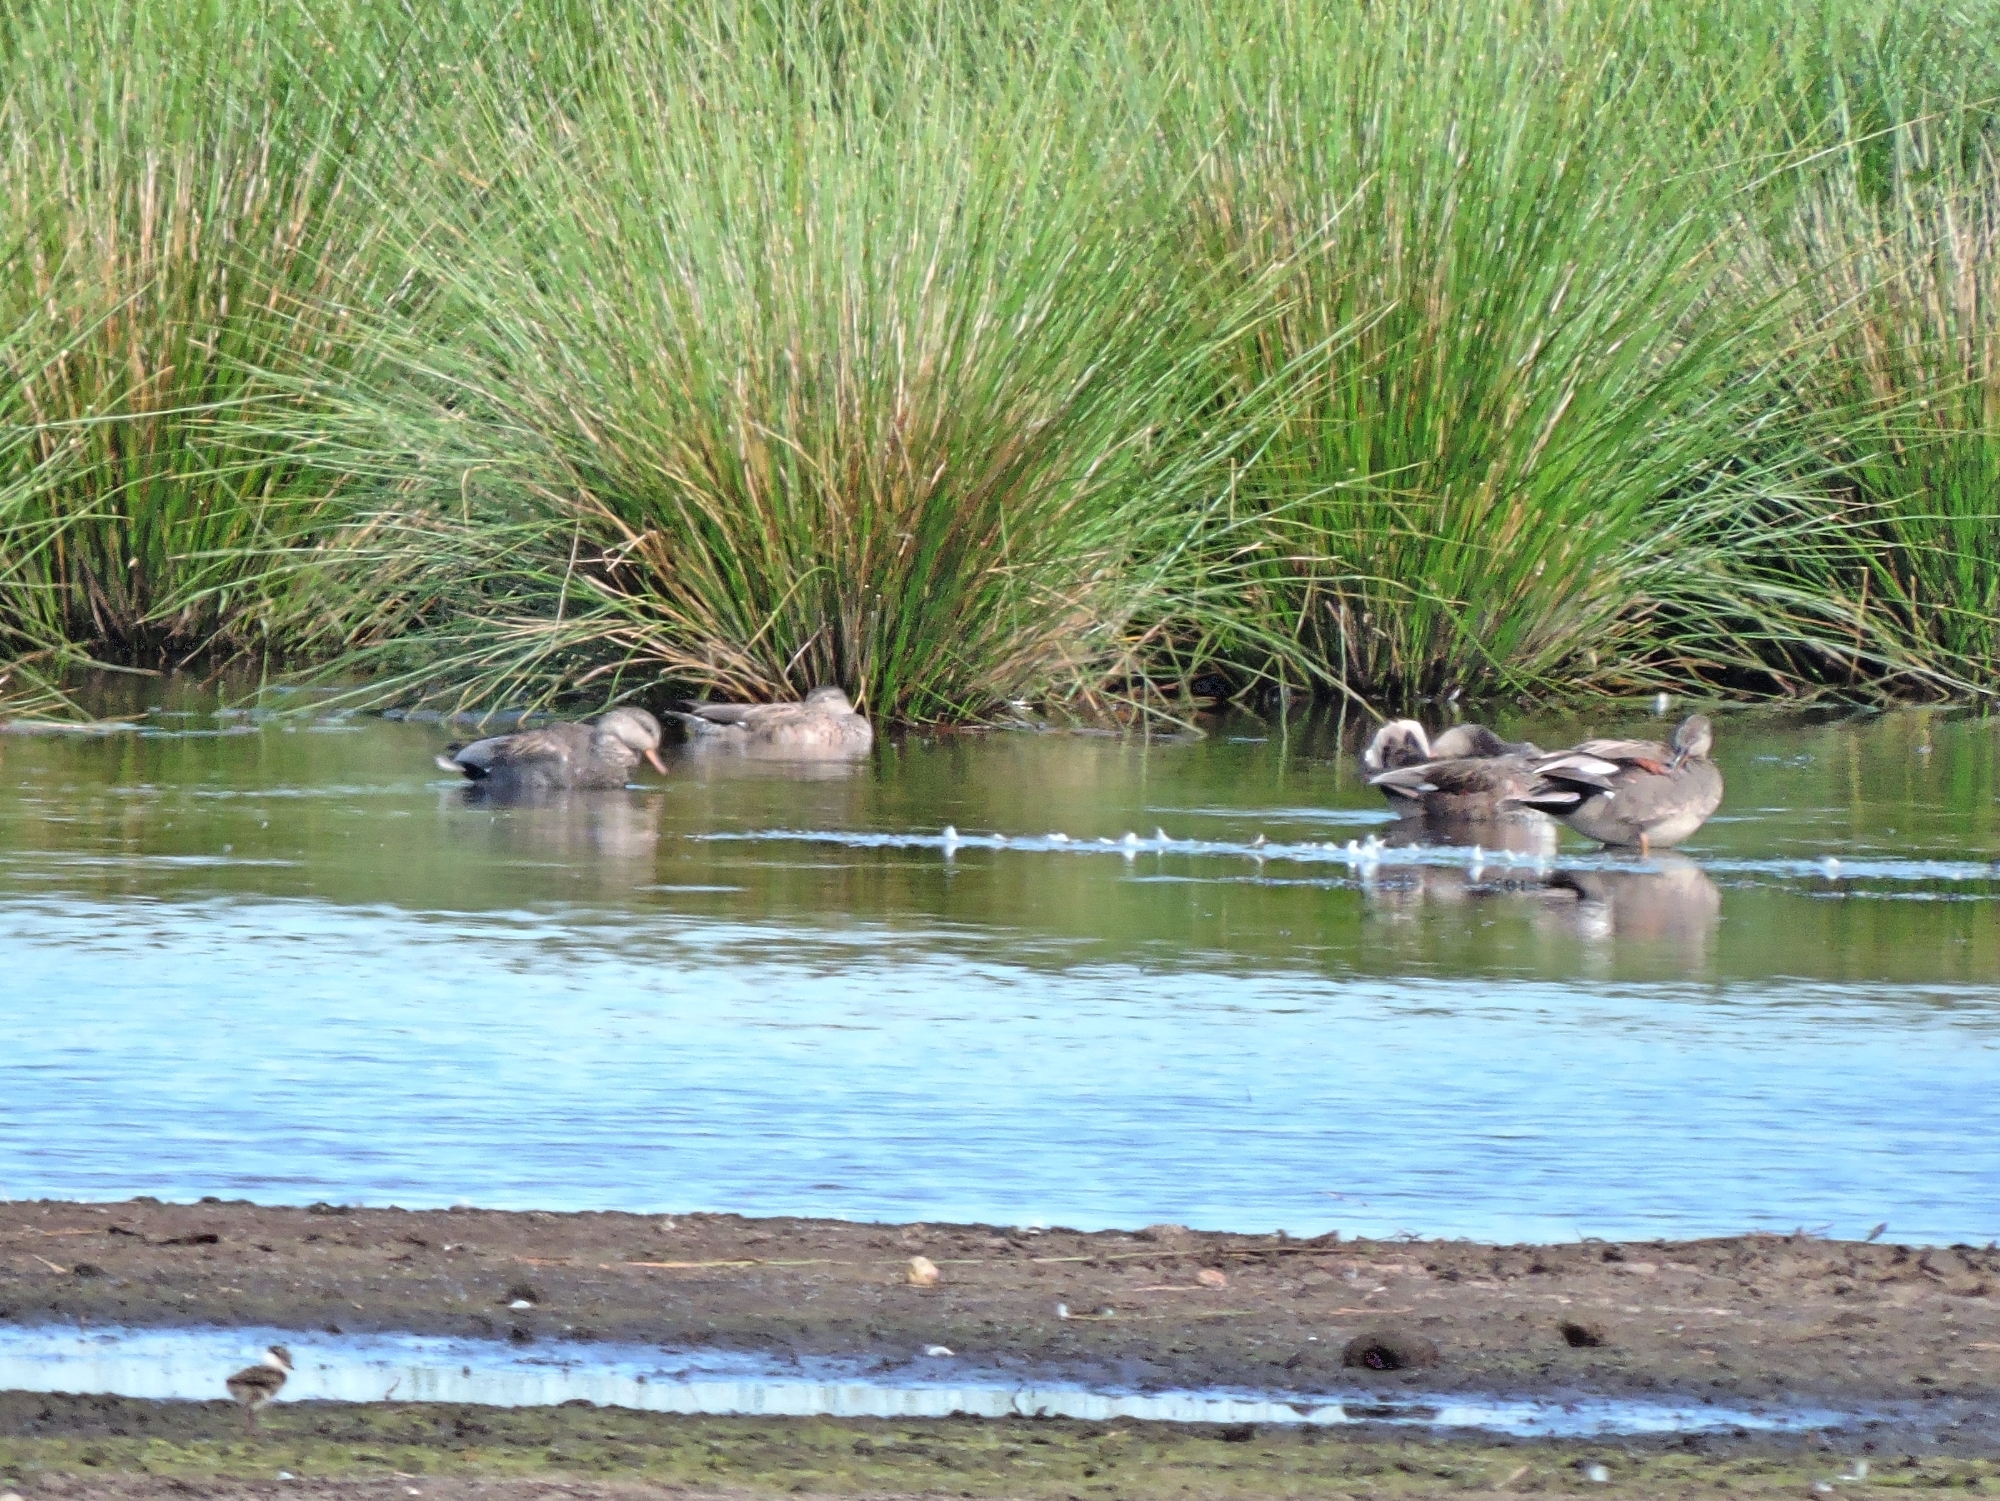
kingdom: Animalia
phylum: Chordata
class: Aves
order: Anseriformes
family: Anatidae
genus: Mareca
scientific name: Mareca strepera
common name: Gadwall
